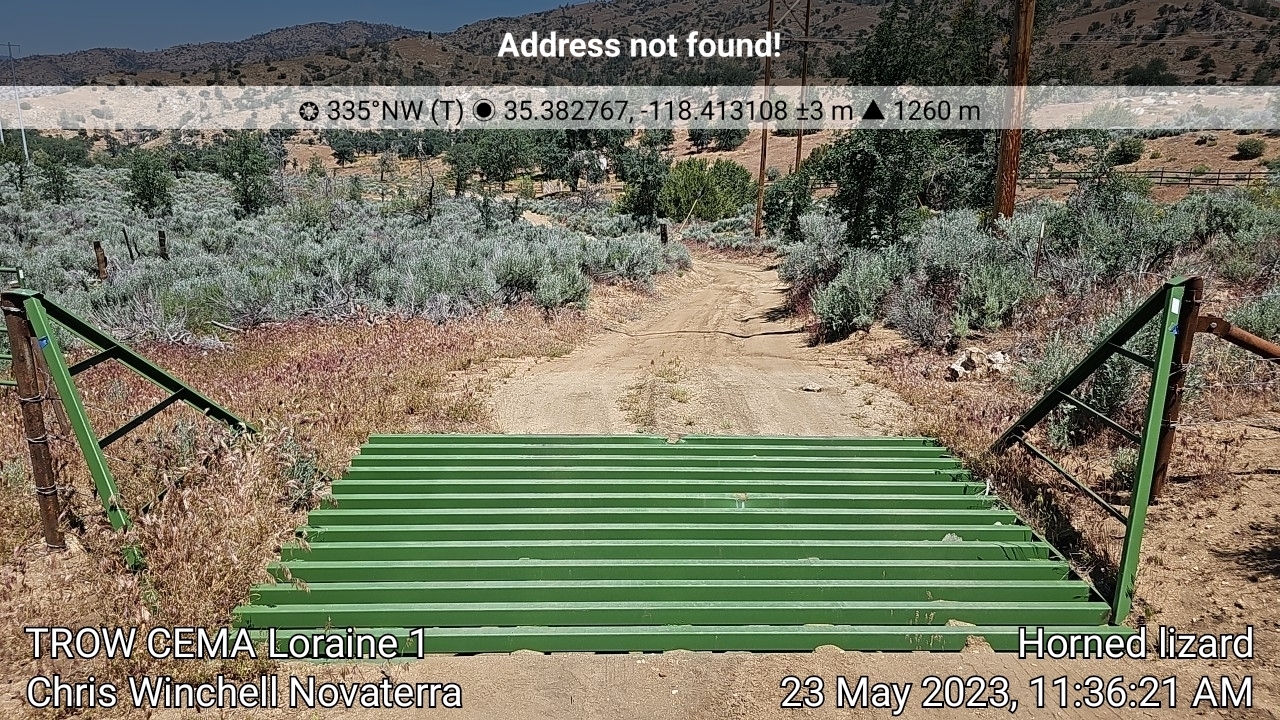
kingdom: Animalia
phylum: Chordata
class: Squamata
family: Phrynosomatidae
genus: Phrynosoma
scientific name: Phrynosoma blainvillii
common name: San diego horned lizard
